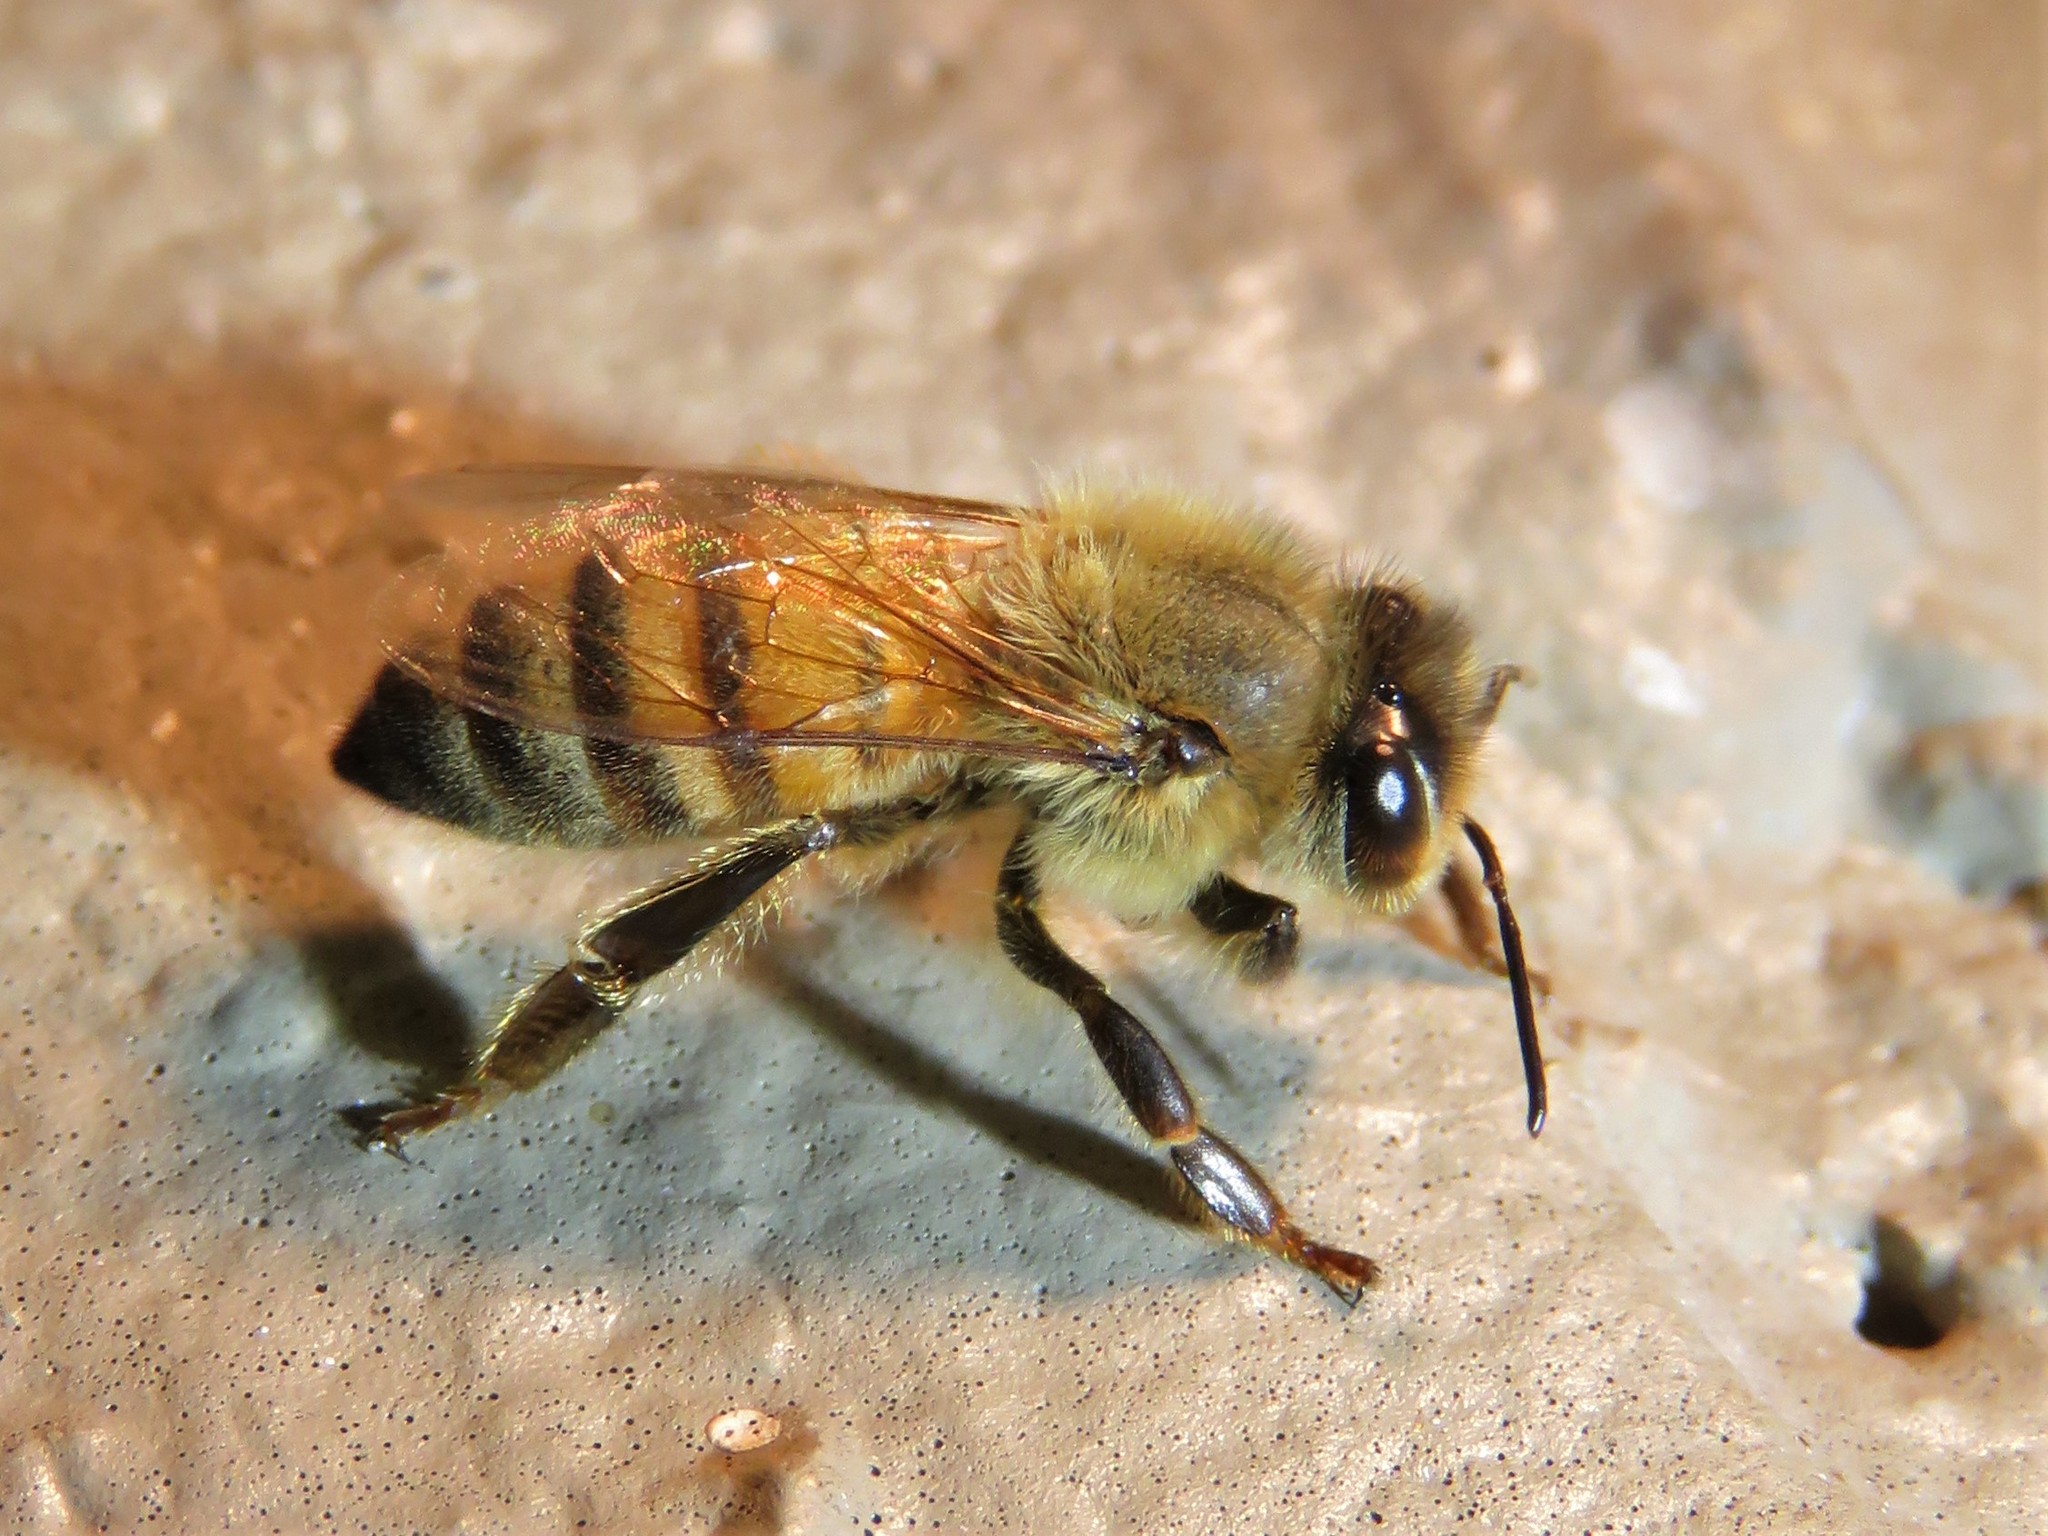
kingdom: Animalia
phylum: Arthropoda
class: Insecta
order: Hymenoptera
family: Apidae
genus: Apis
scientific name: Apis mellifera
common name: Honey bee
